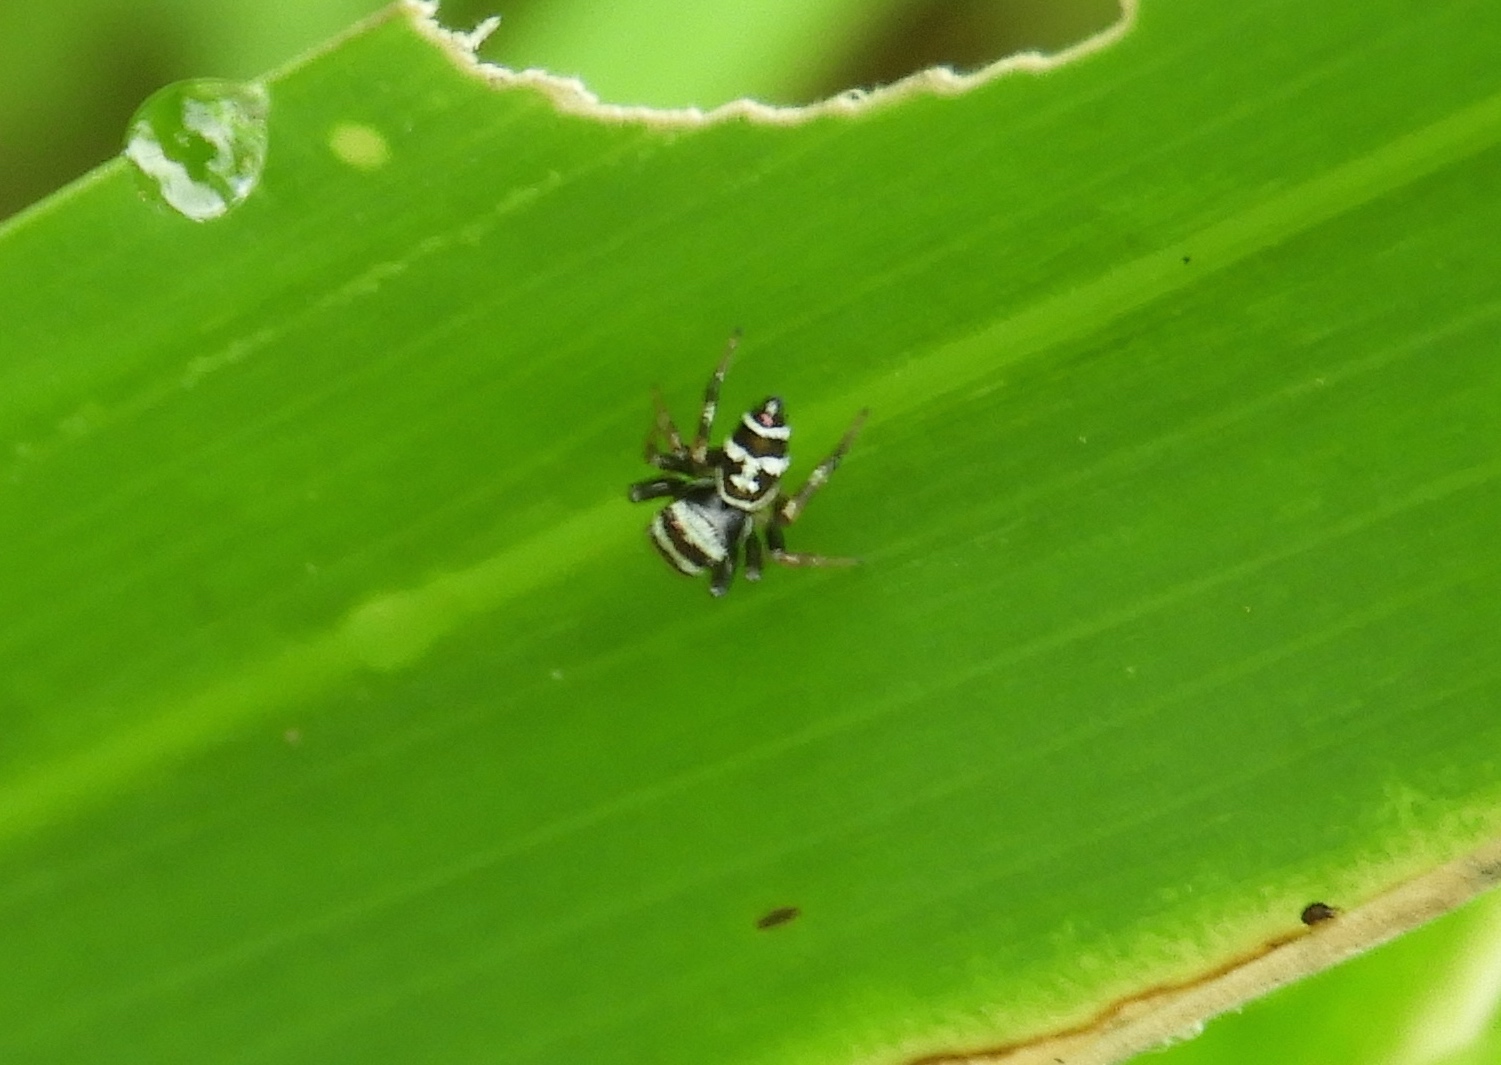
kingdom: Animalia
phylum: Arthropoda
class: Arachnida
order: Araneae
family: Salticidae
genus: Sassacus
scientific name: Sassacus
